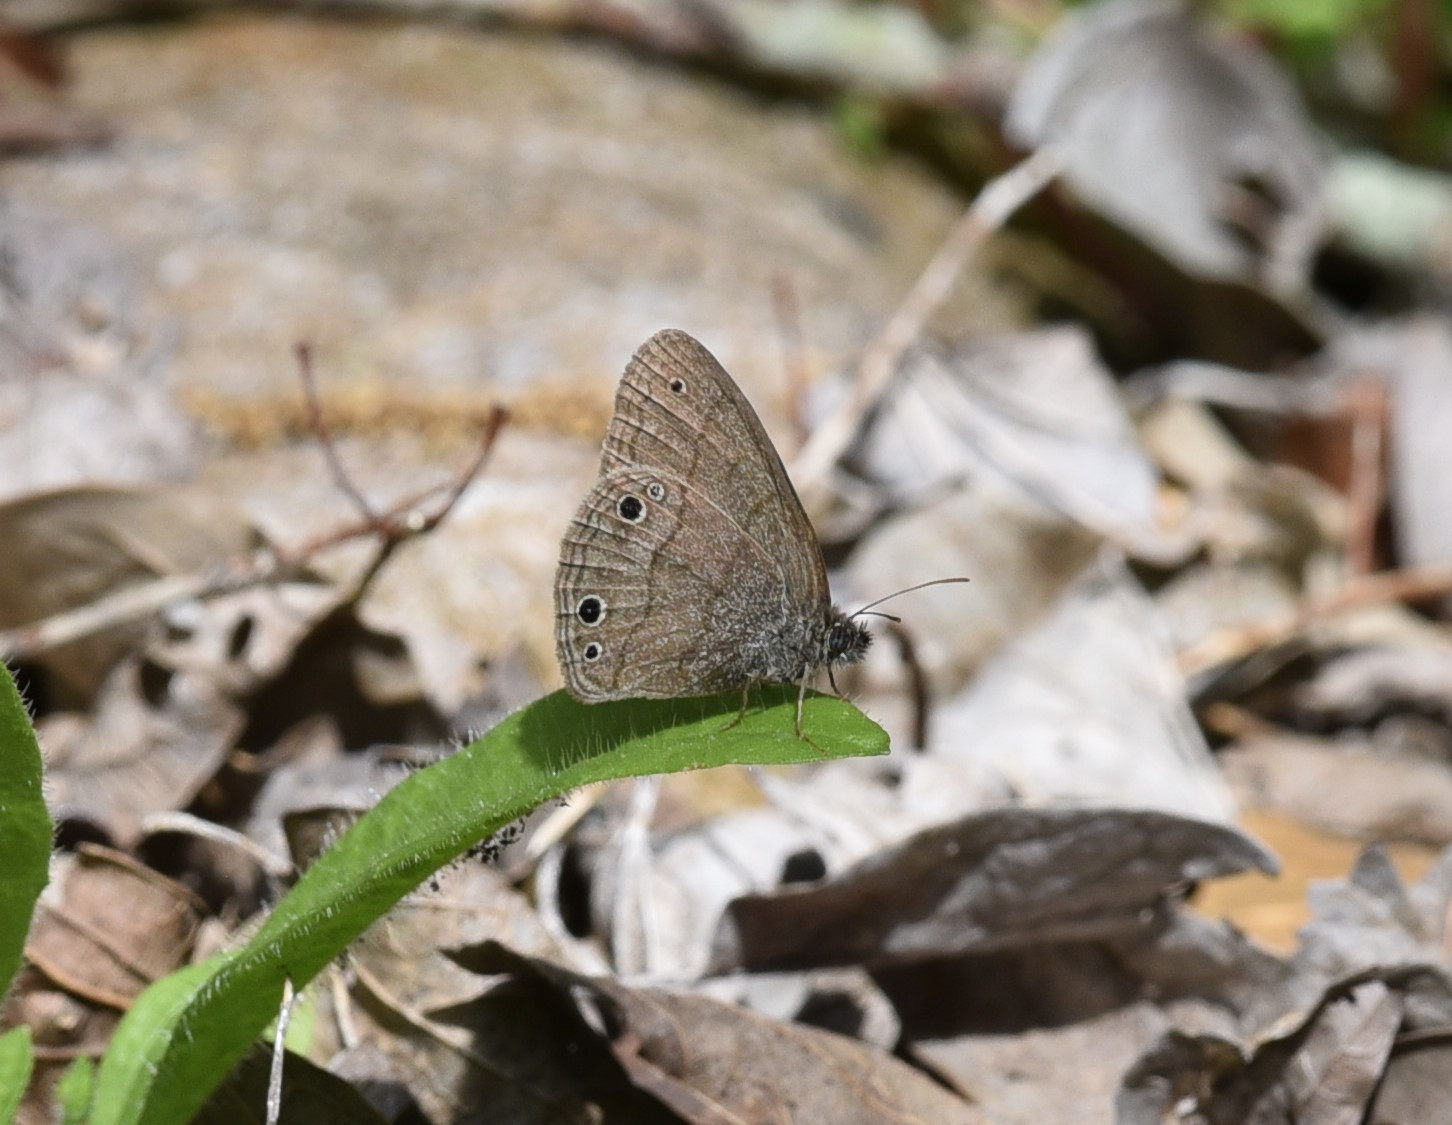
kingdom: Animalia
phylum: Arthropoda
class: Insecta
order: Lepidoptera
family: Nymphalidae
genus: Hermeuptychia
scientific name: Hermeuptychia hermes
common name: Hermes satyr
